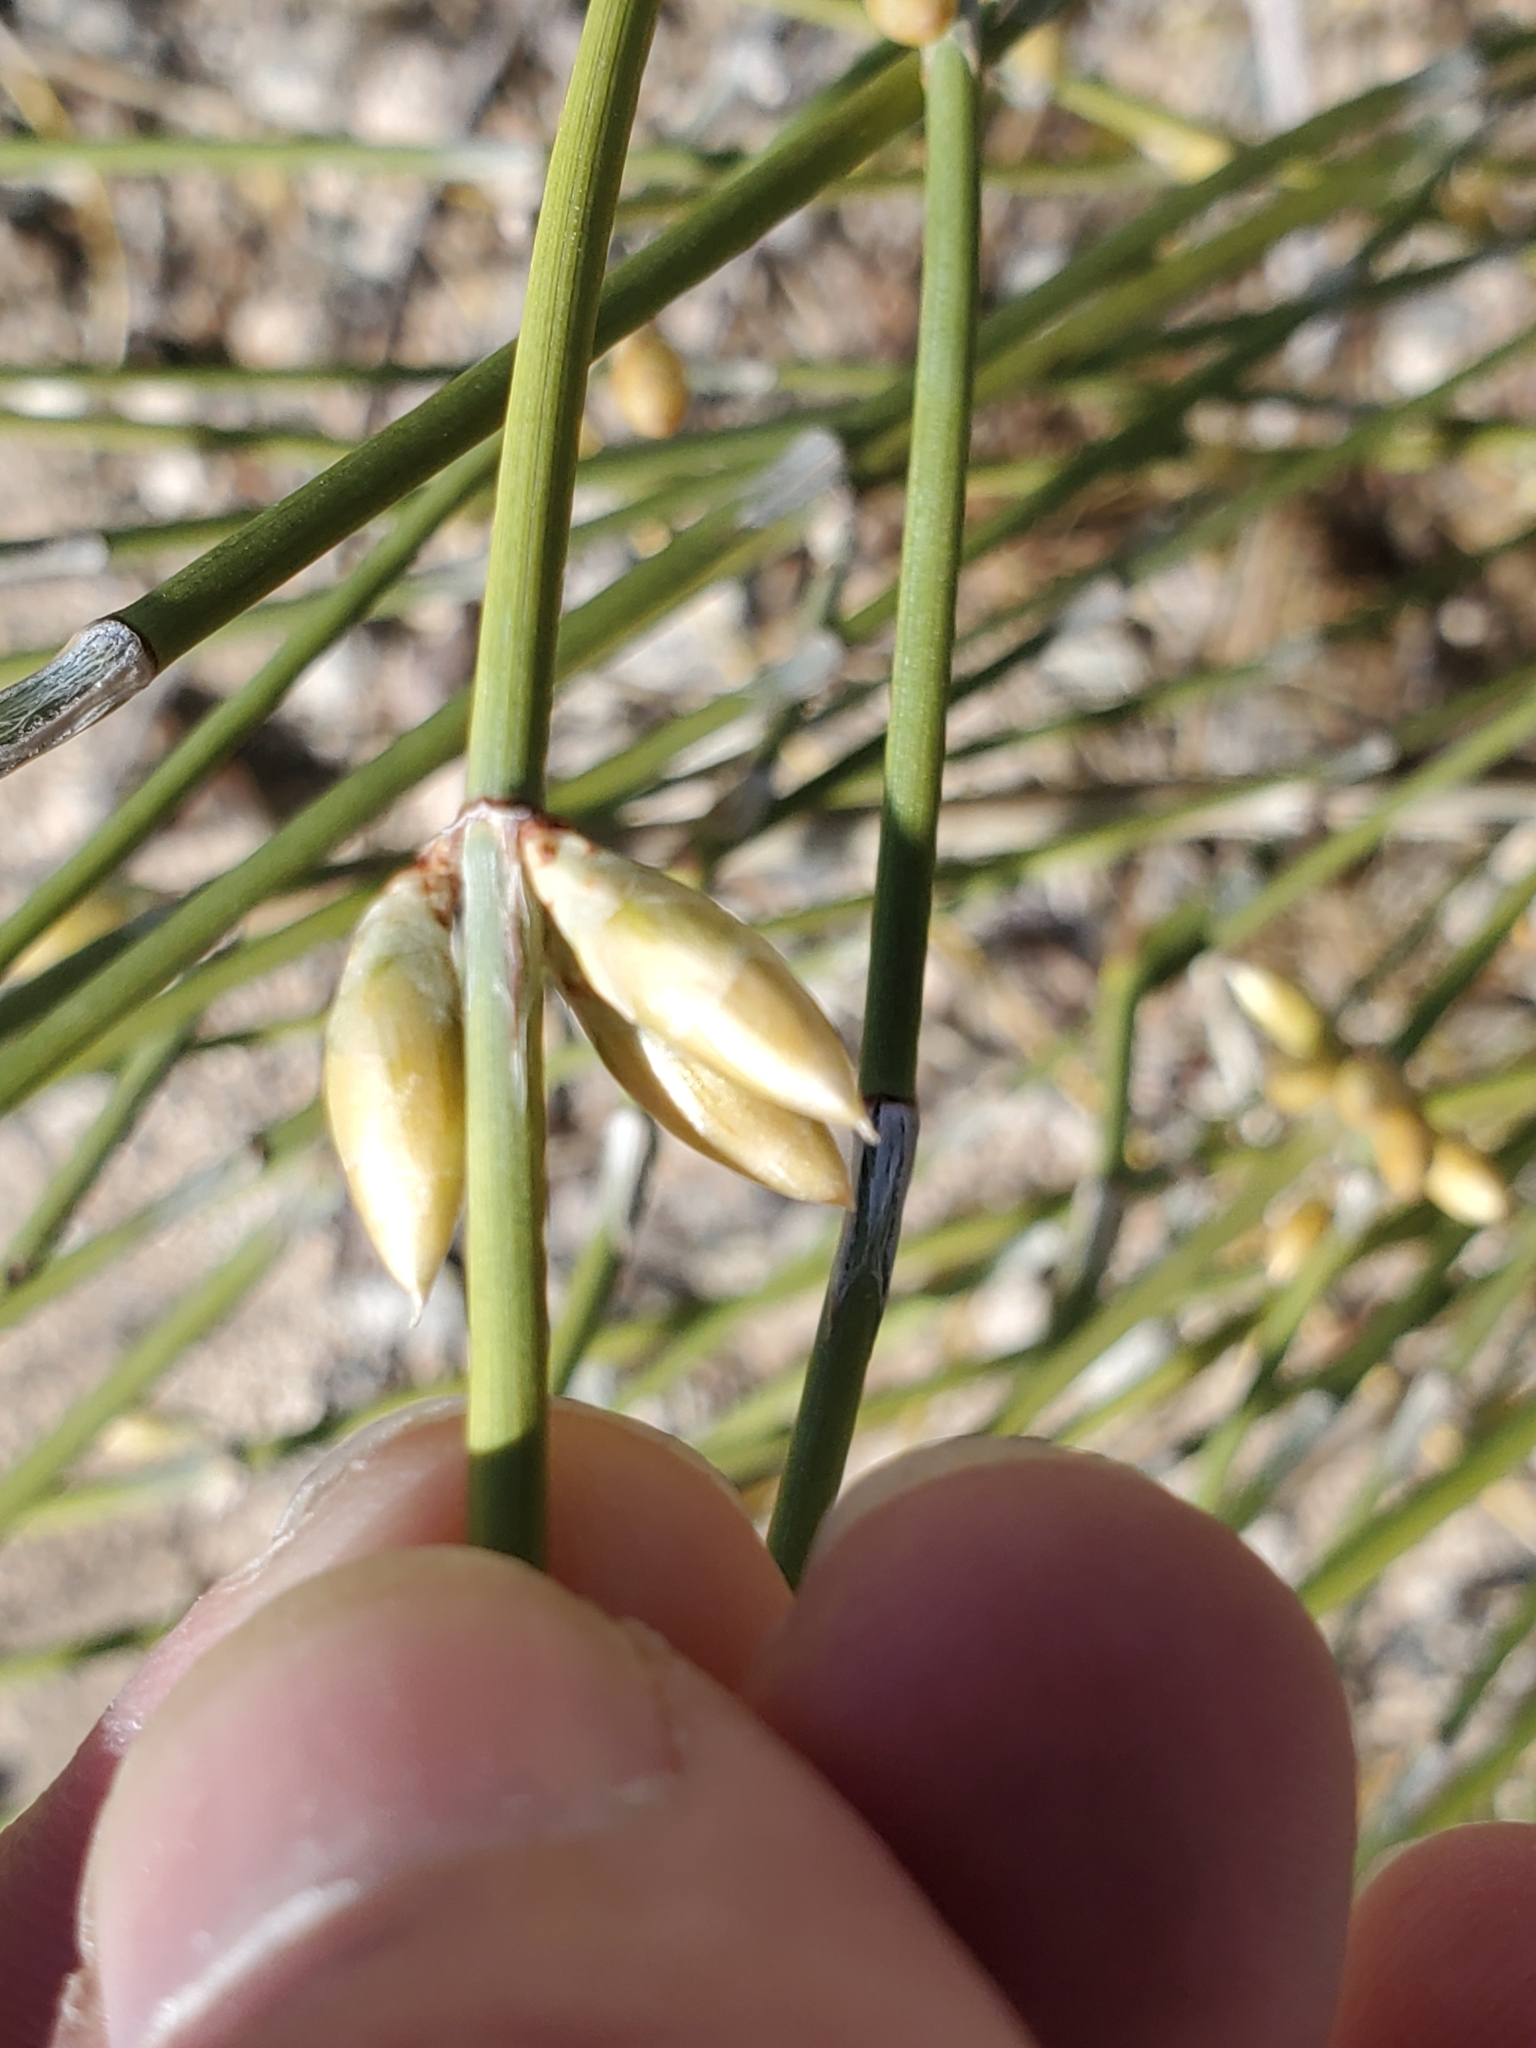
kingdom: Plantae
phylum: Tracheophyta
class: Gnetopsida
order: Ephedrales
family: Ephedraceae
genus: Ephedra
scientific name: Ephedra trifurca
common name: Mexican-tea
